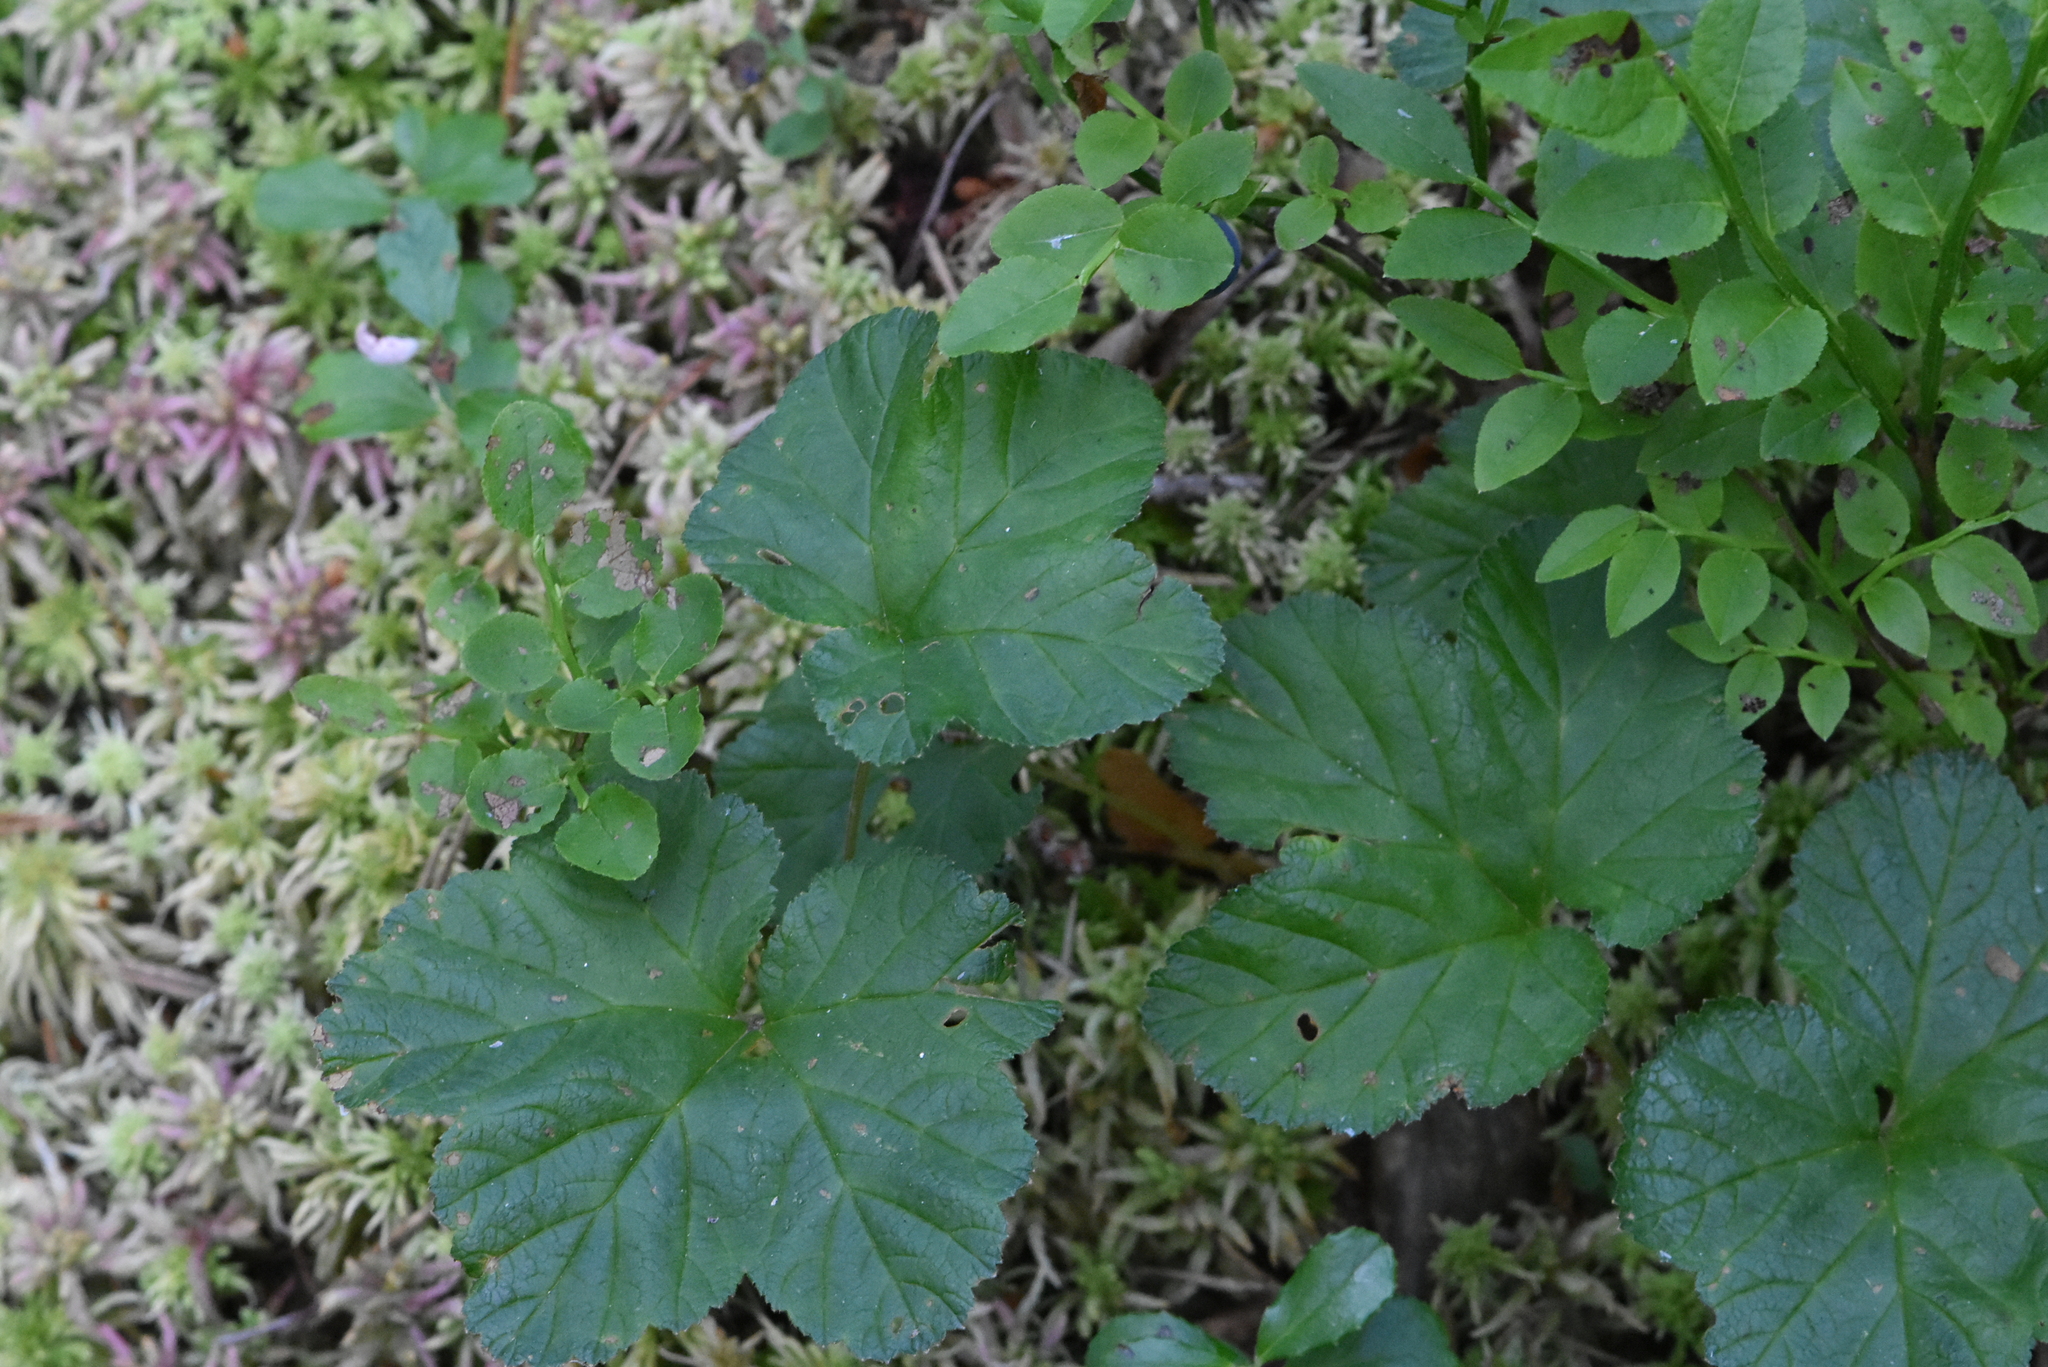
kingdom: Plantae
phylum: Tracheophyta
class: Magnoliopsida
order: Rosales
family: Rosaceae
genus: Rubus
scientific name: Rubus chamaemorus
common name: Cloudberry
